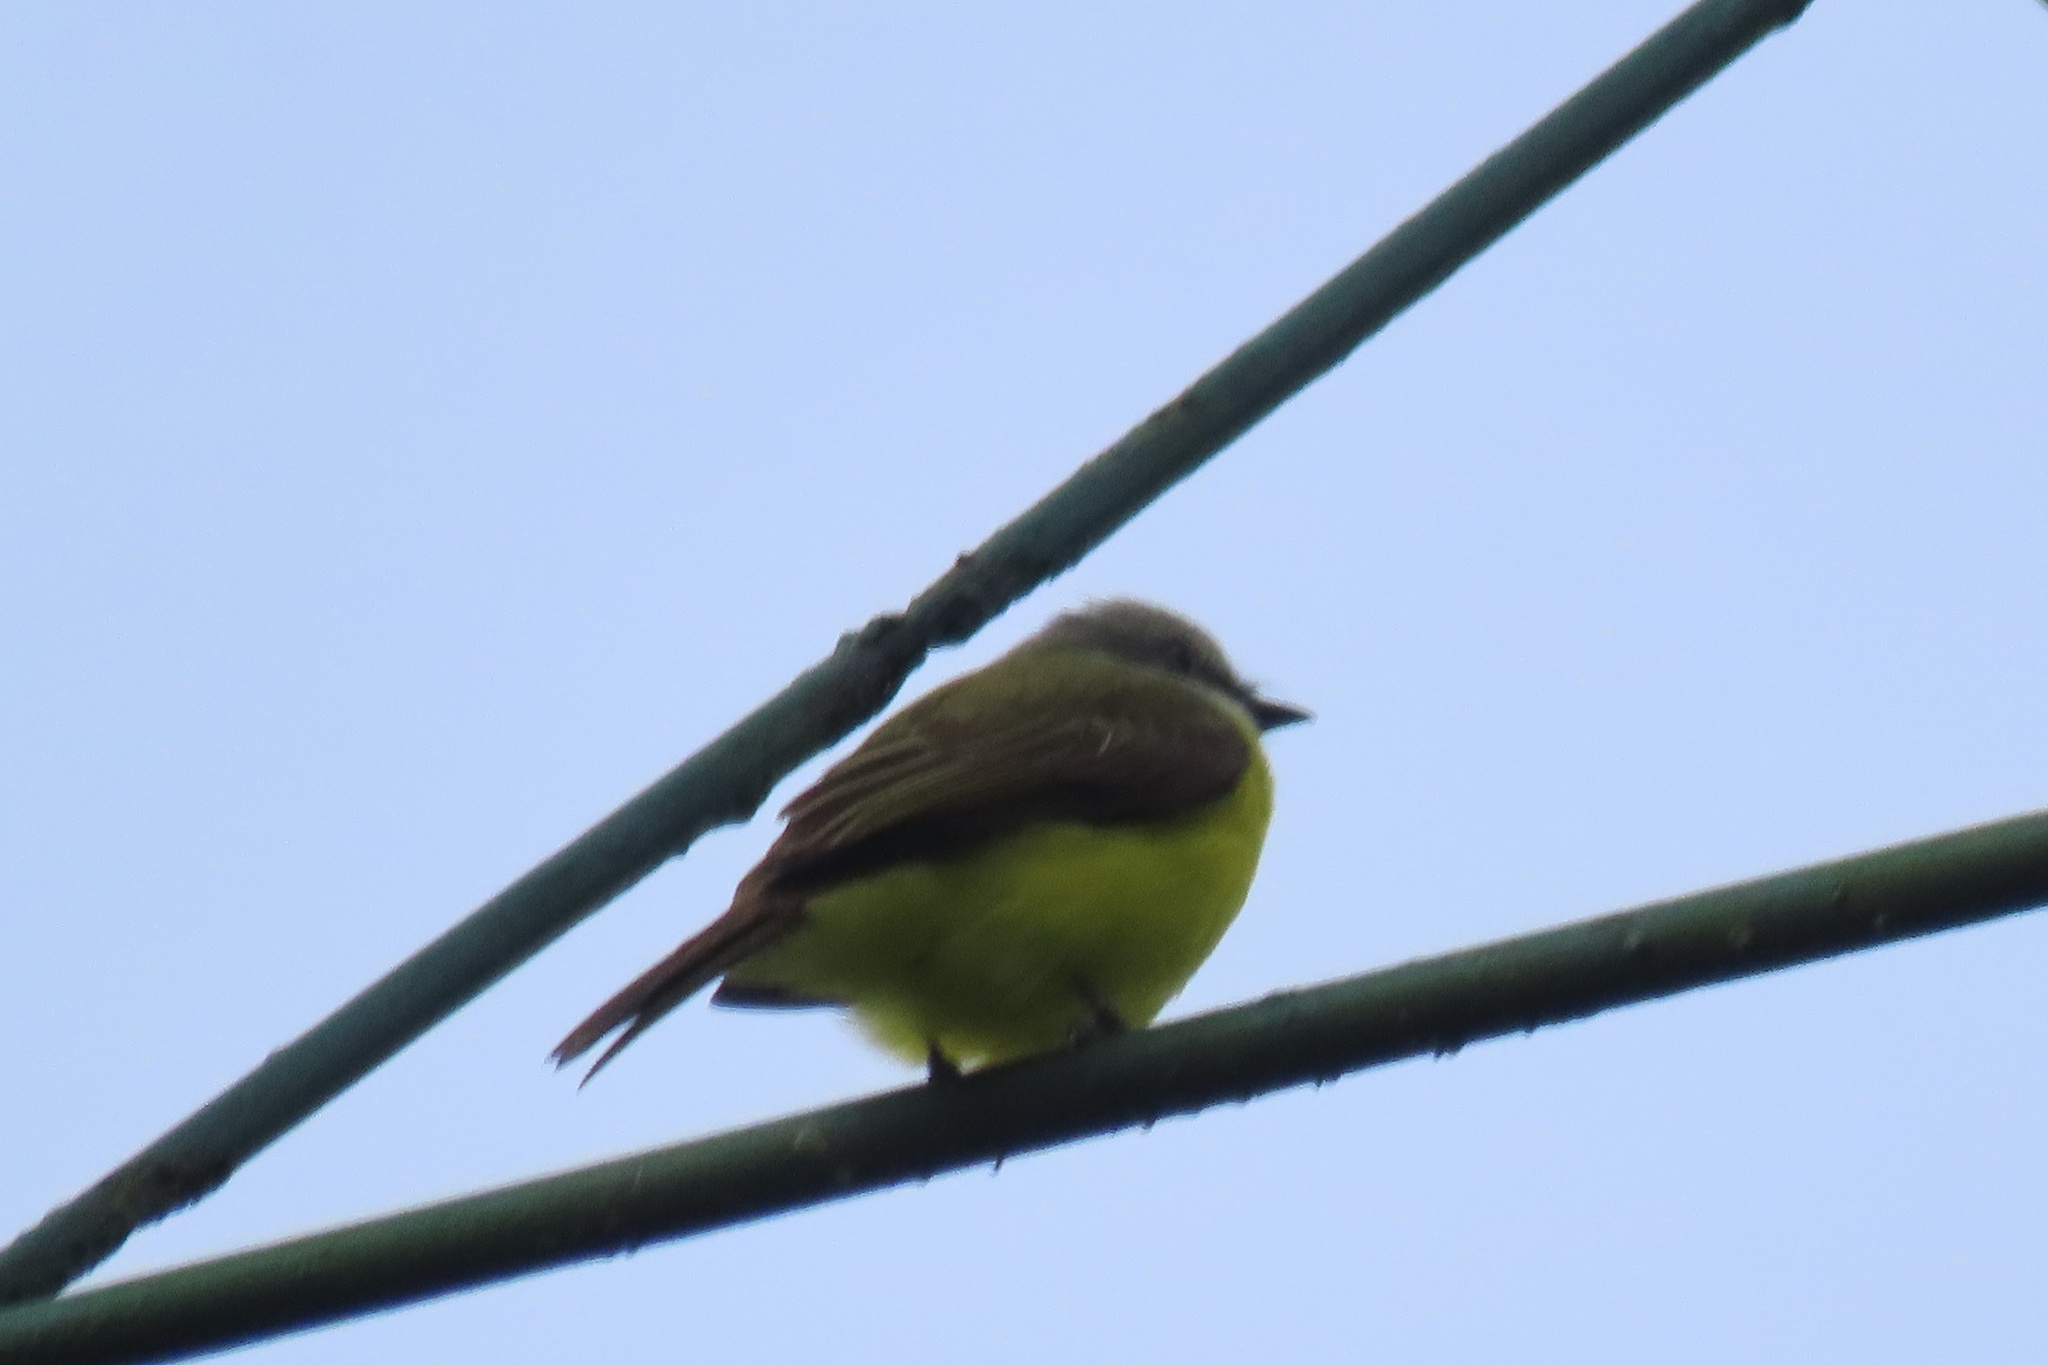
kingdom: Animalia
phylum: Chordata
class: Aves
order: Passeriformes
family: Tyrannidae
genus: Myiozetetes
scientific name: Myiozetetes granadensis
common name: Gray-capped flycatcher
